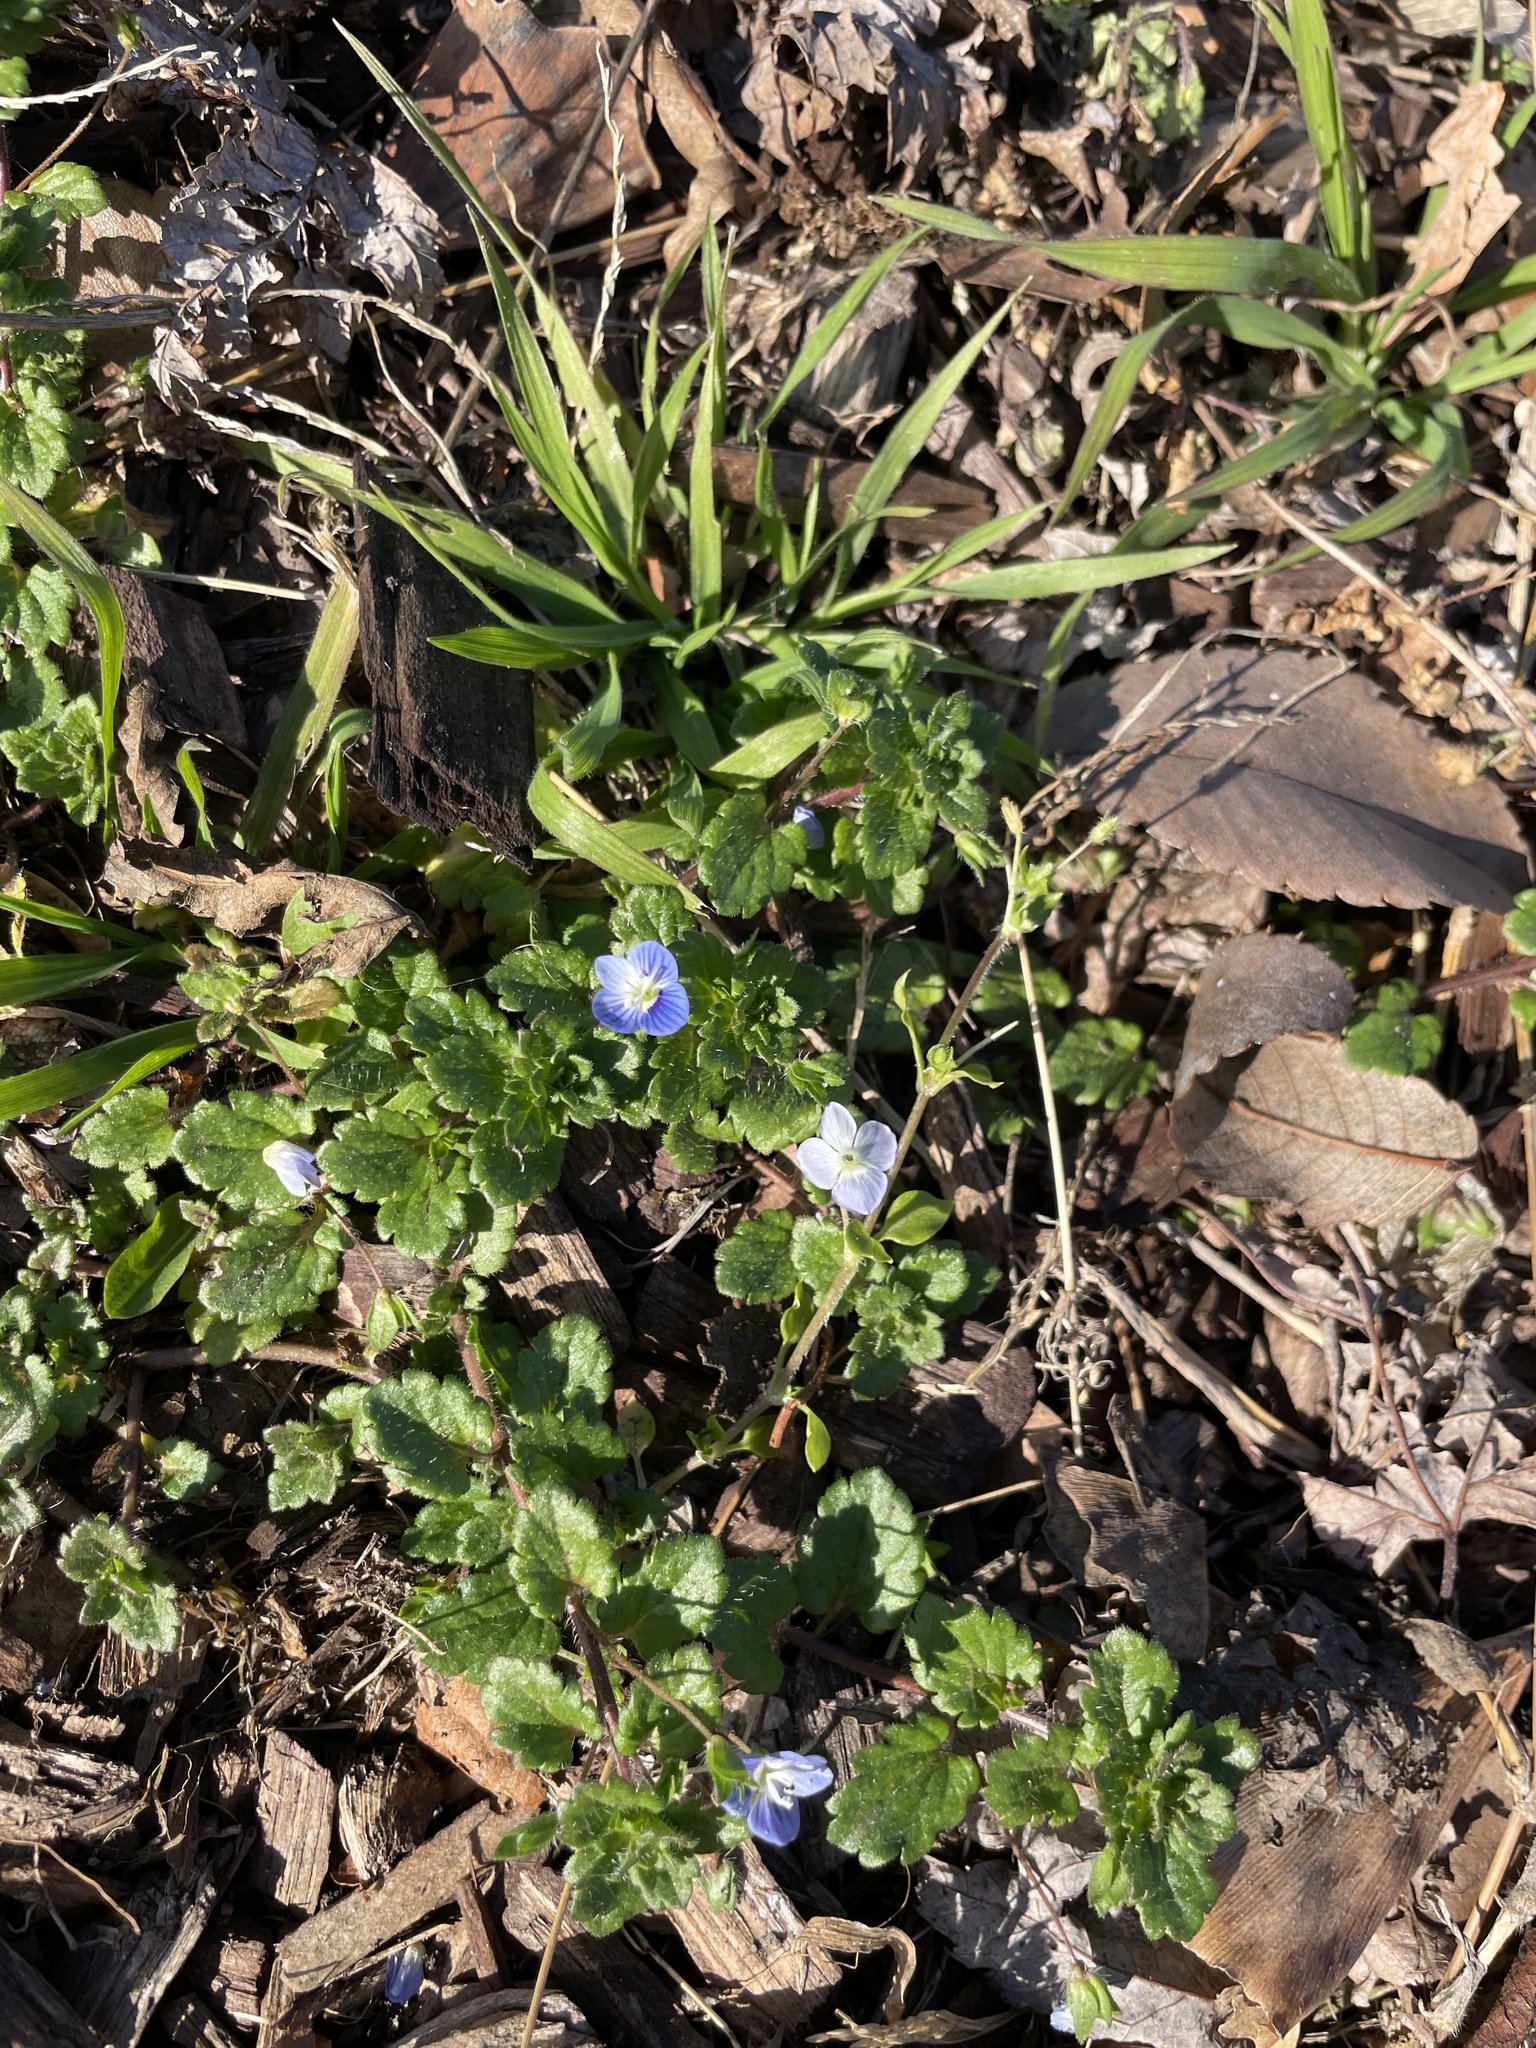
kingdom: Plantae
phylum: Tracheophyta
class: Magnoliopsida
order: Lamiales
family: Plantaginaceae
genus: Veronica
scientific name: Veronica persica
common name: Common field-speedwell
